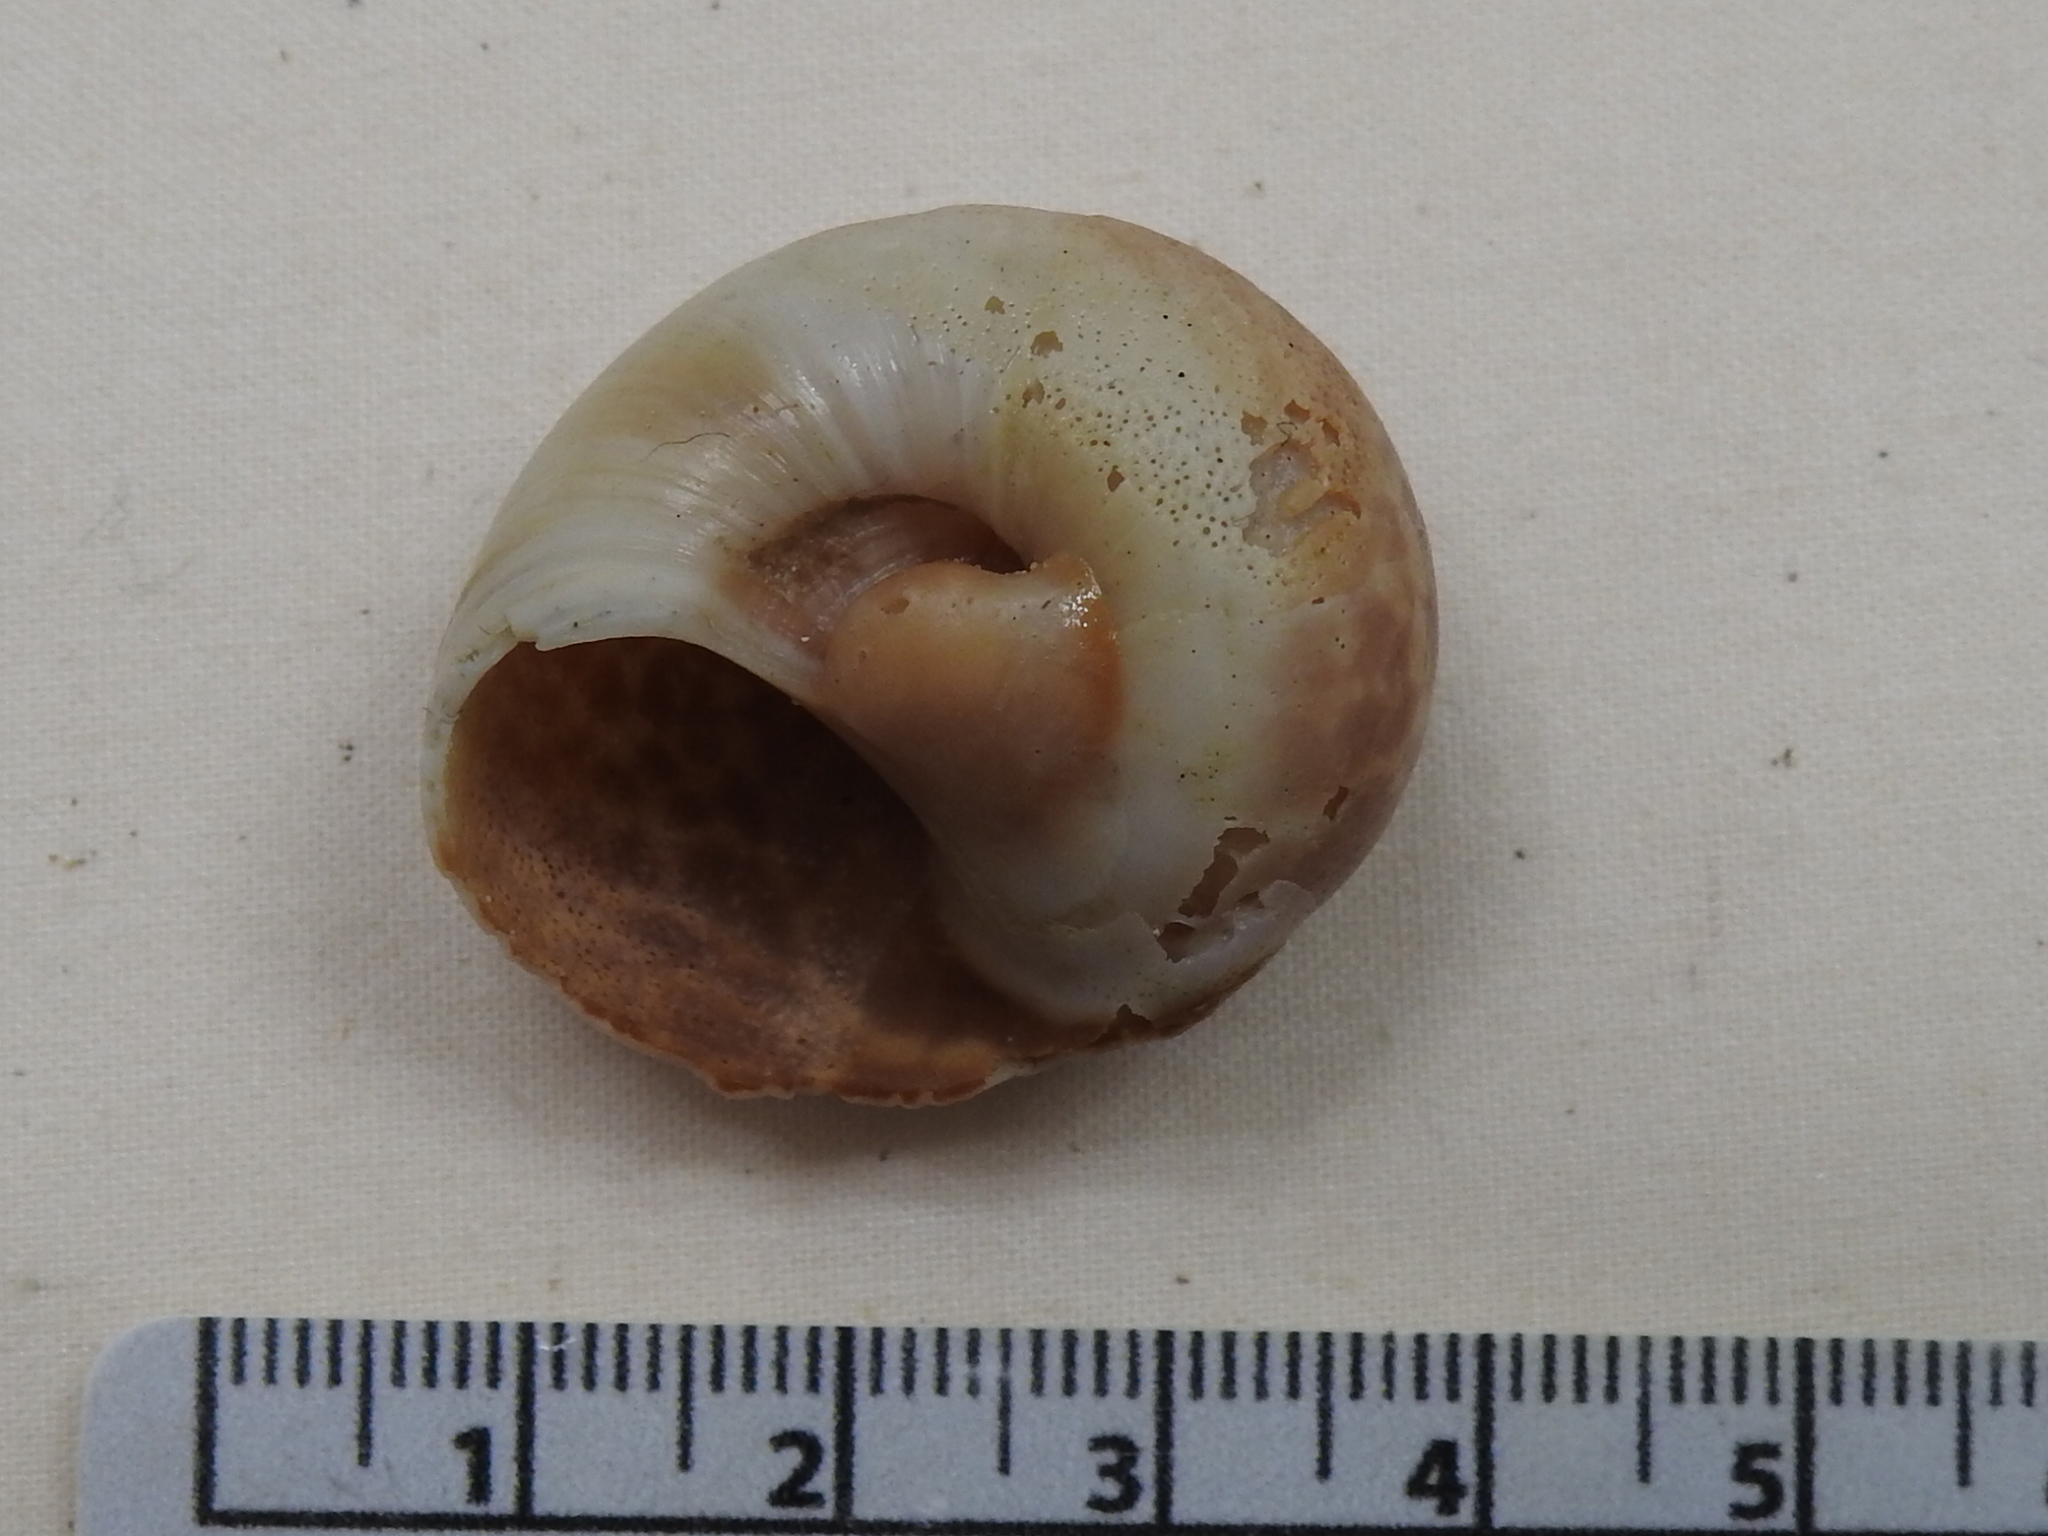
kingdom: Animalia
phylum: Mollusca
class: Gastropoda
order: Littorinimorpha
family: Naticidae
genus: Neverita
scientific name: Neverita delessertiana
